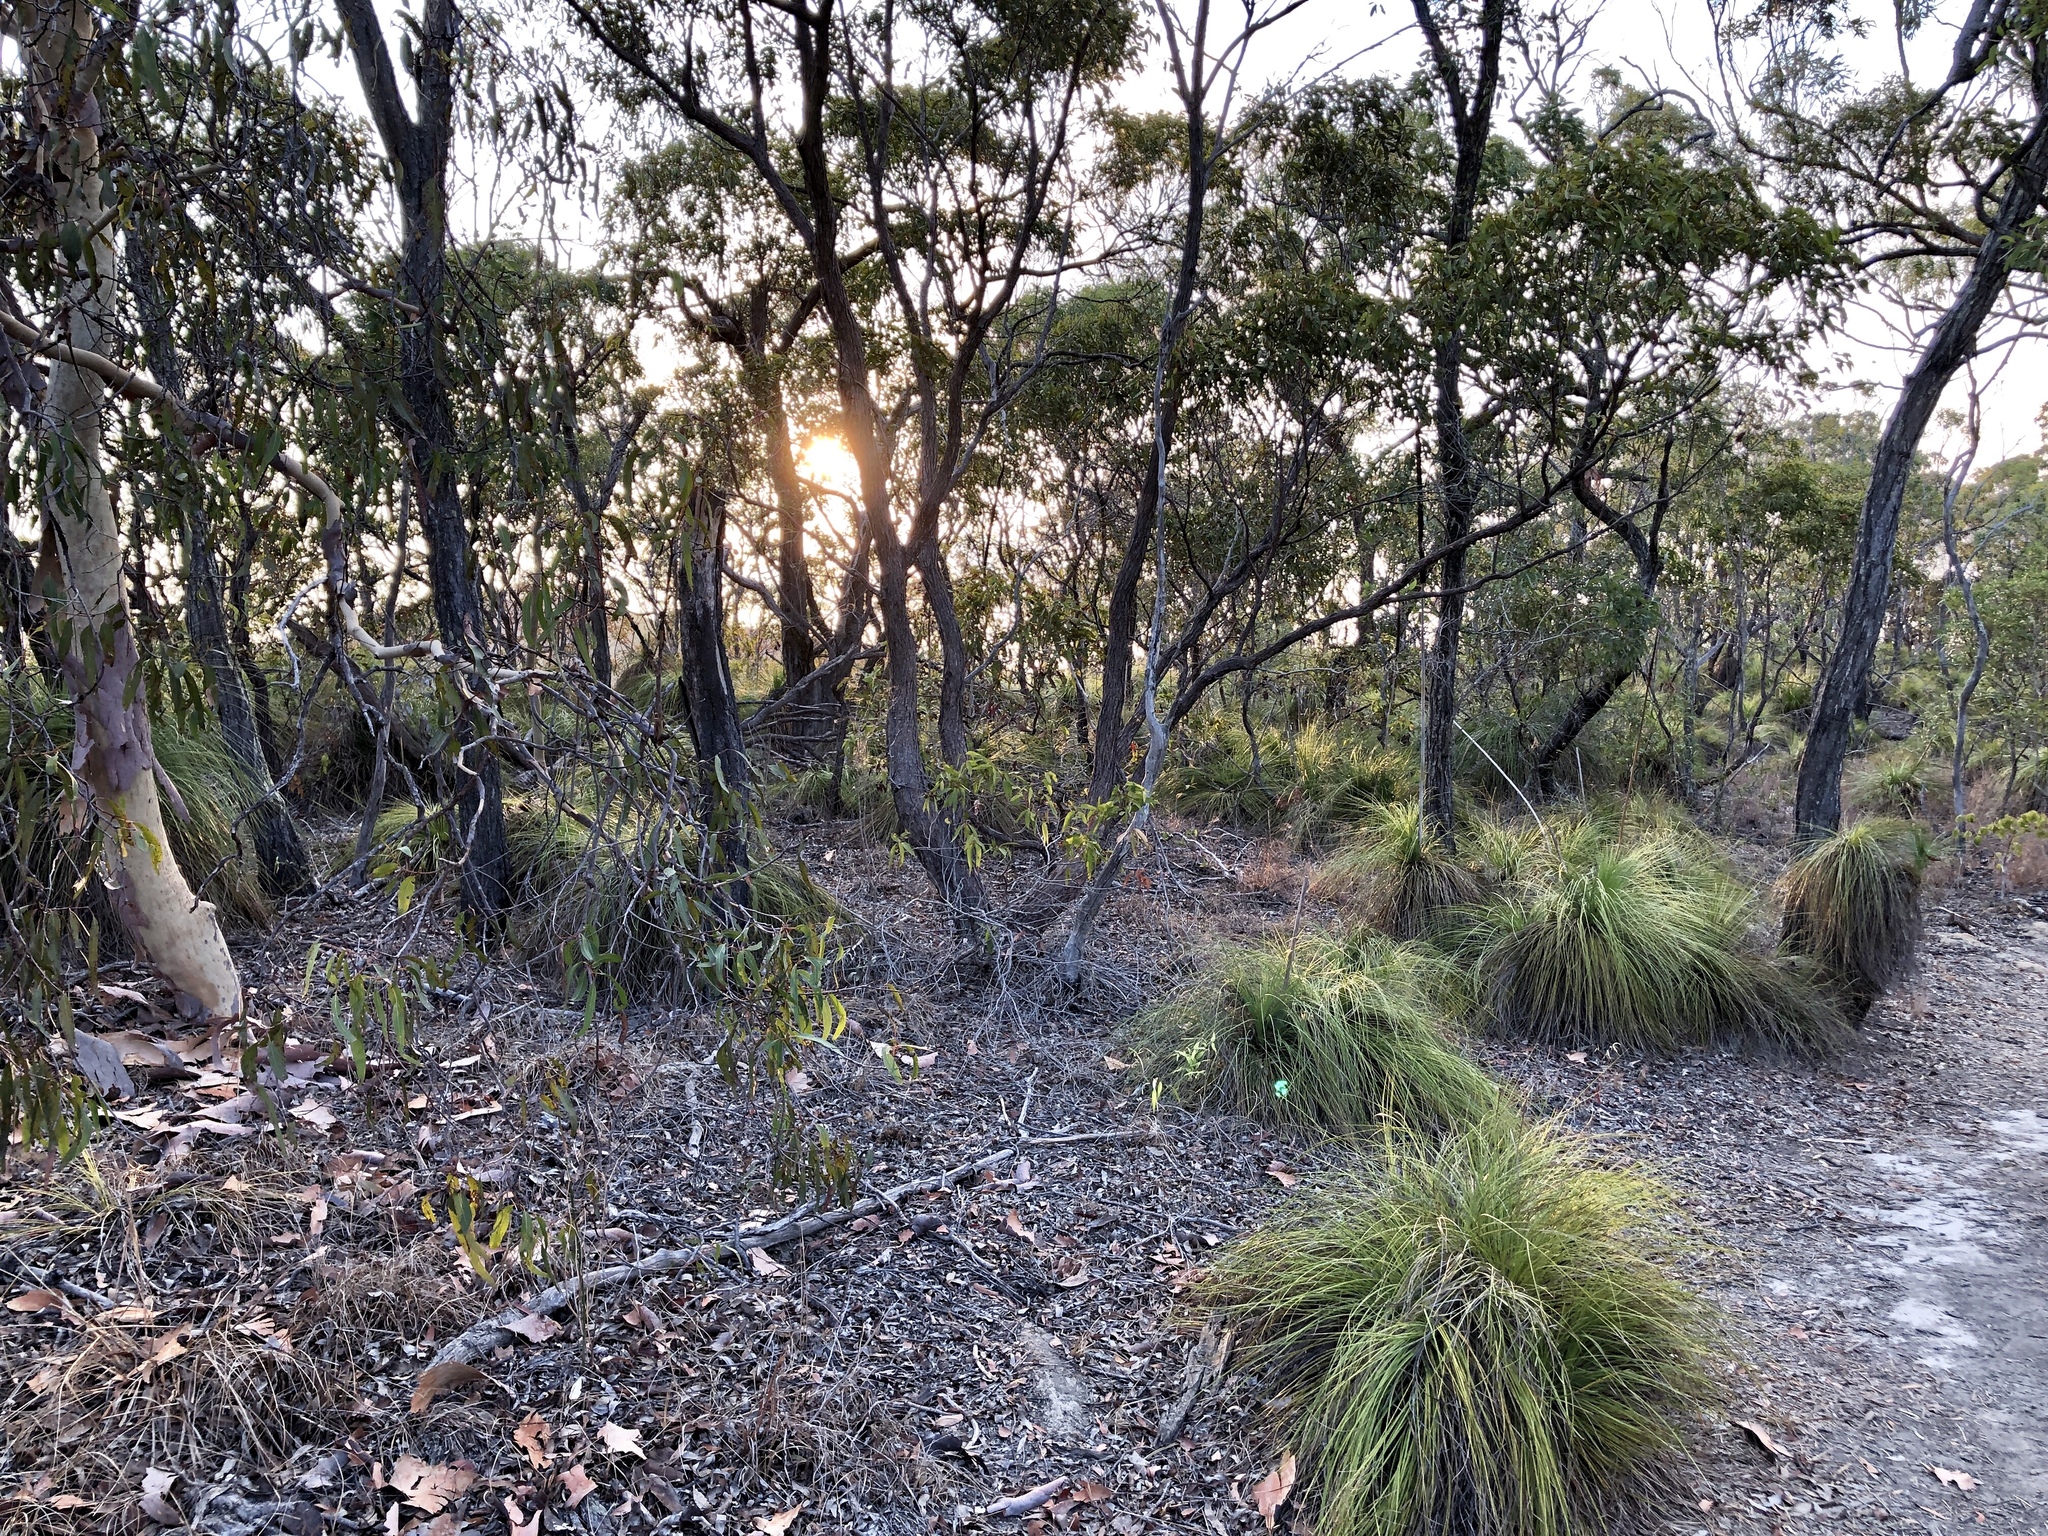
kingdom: Plantae
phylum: Tracheophyta
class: Liliopsida
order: Asparagales
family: Asphodelaceae
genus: Xanthorrhoea
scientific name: Xanthorrhoea latifolia
